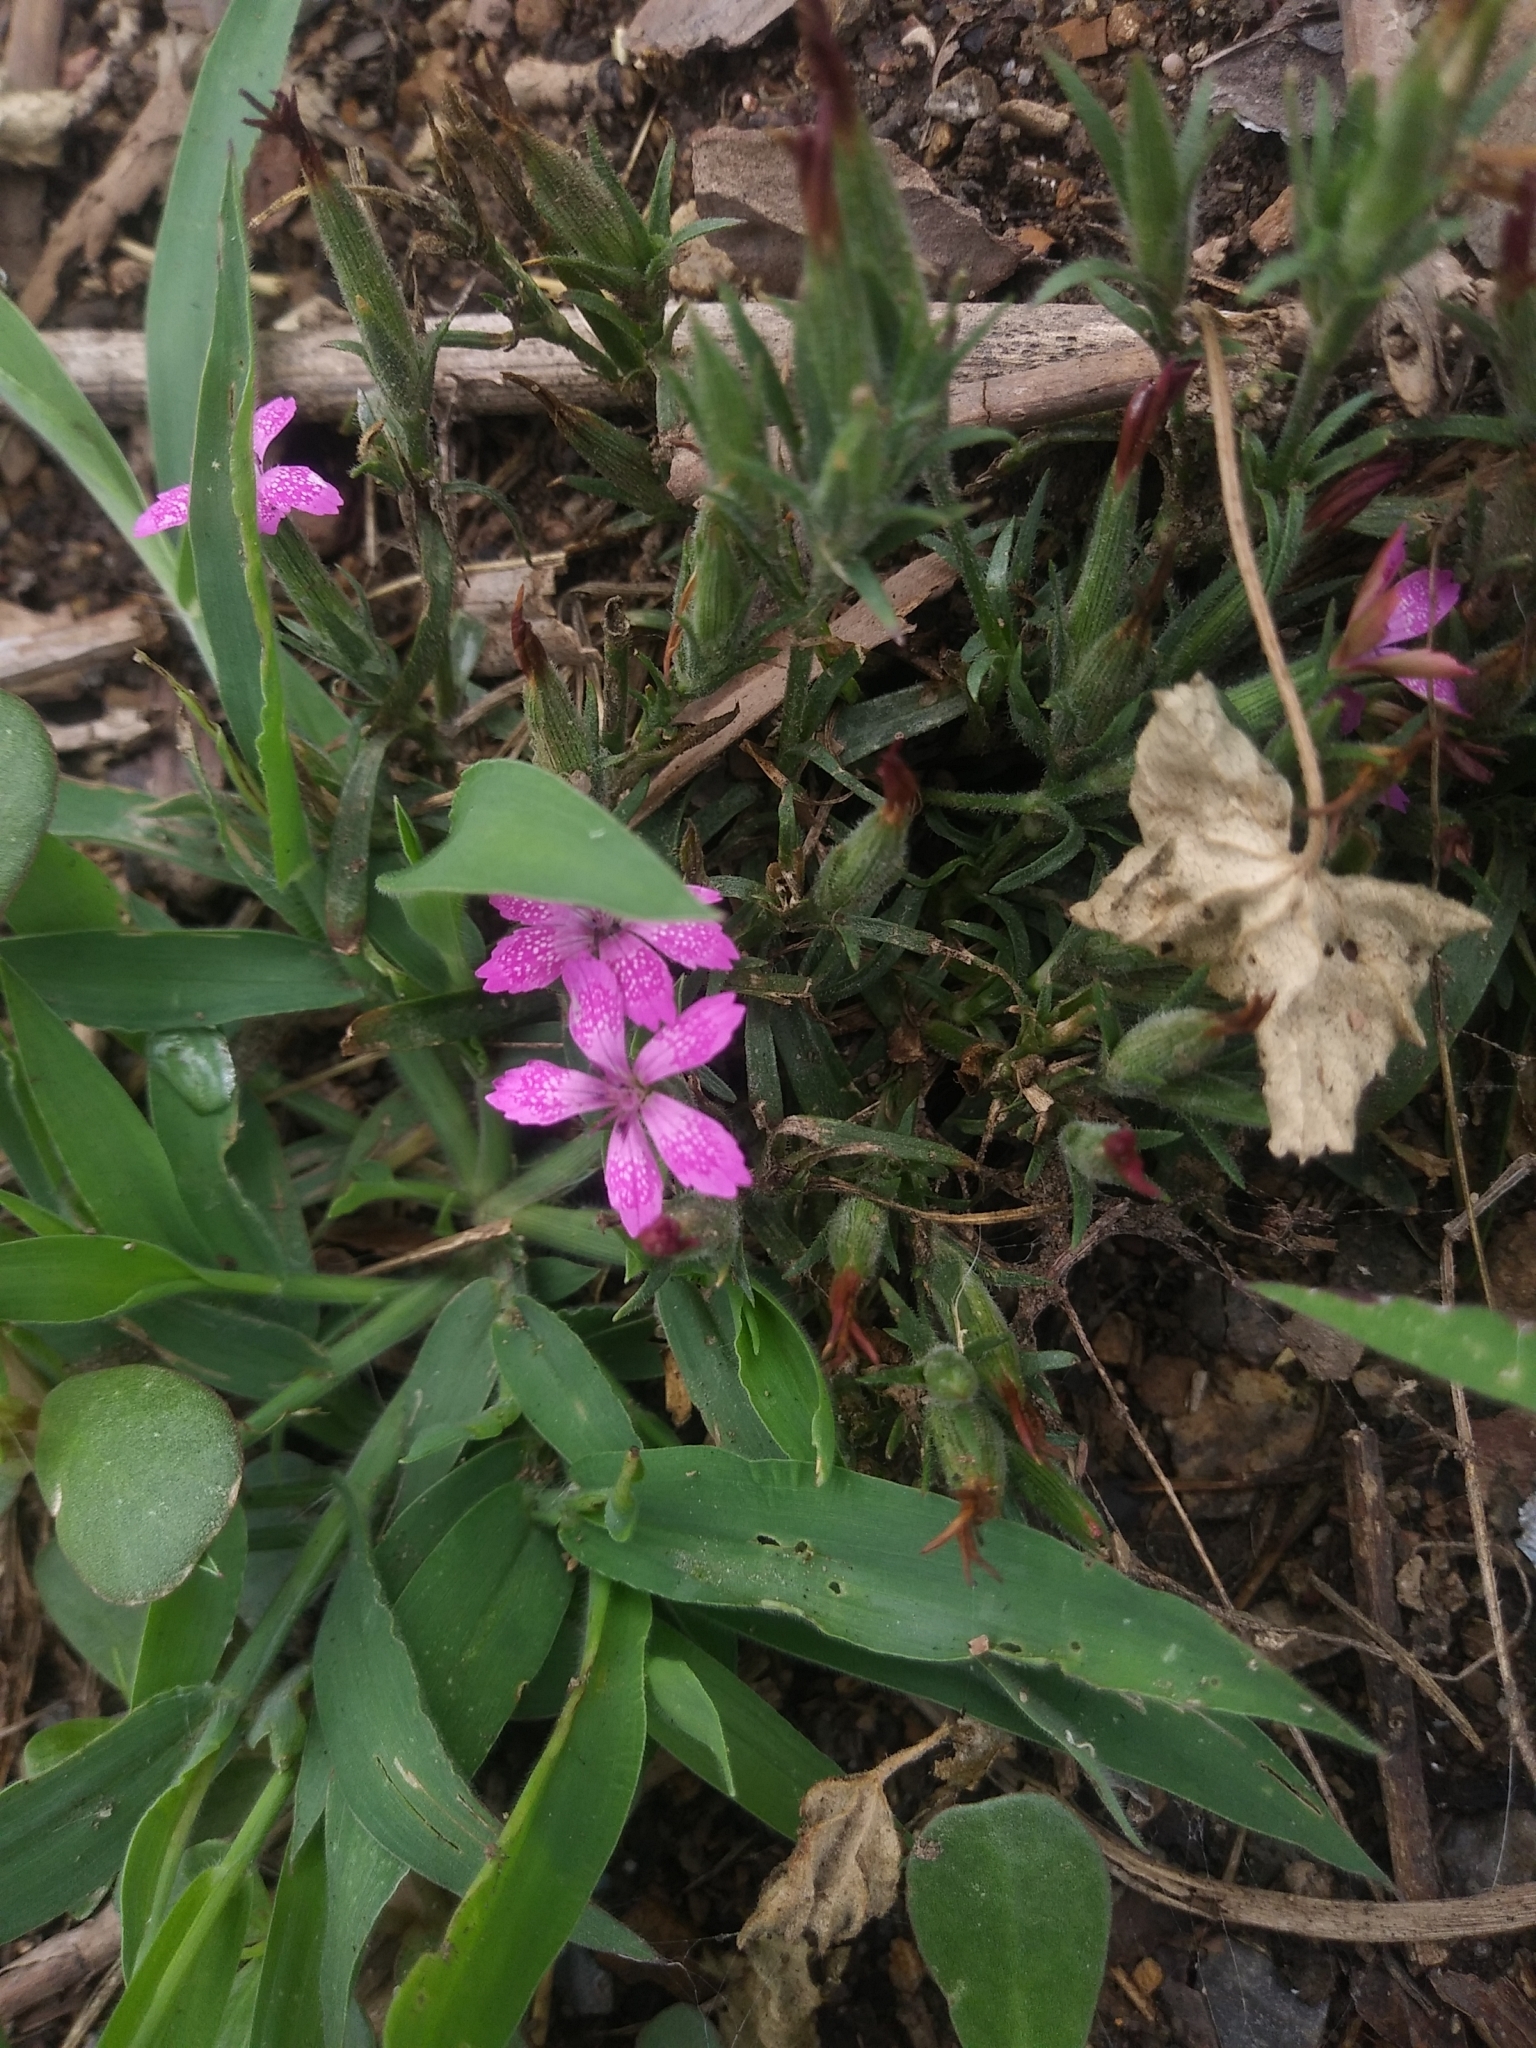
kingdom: Plantae
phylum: Tracheophyta
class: Magnoliopsida
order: Caryophyllales
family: Caryophyllaceae
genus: Dianthus
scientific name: Dianthus armeria
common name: Deptford pink
